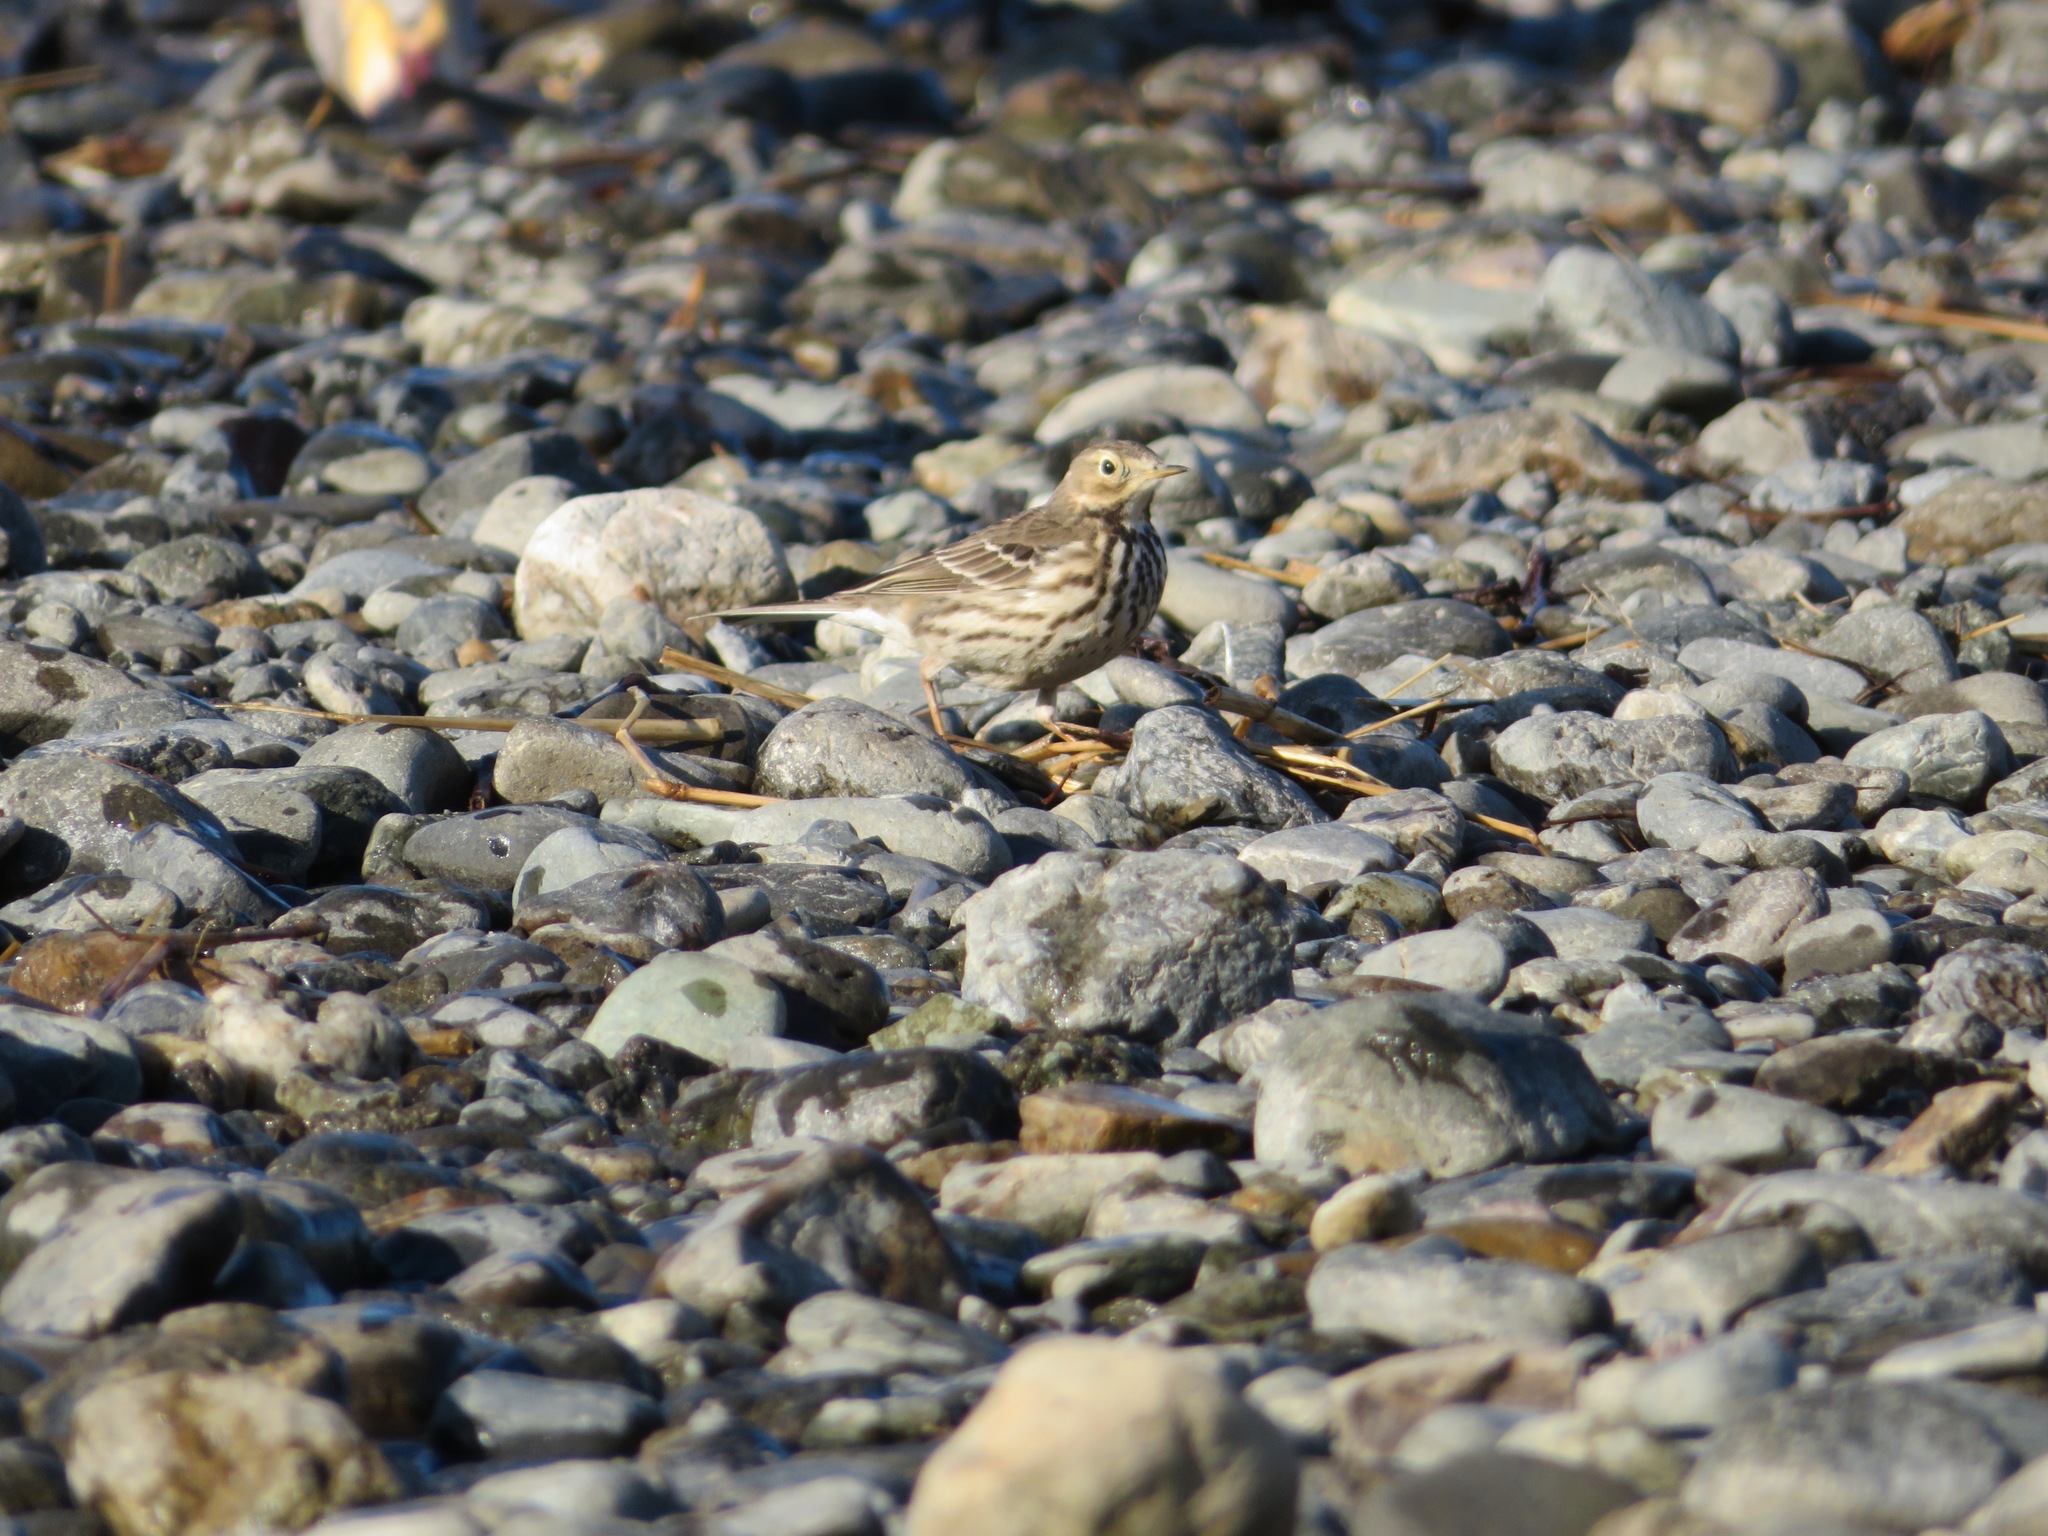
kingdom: Animalia
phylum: Chordata
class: Aves
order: Passeriformes
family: Motacillidae
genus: Anthus
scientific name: Anthus rubescens
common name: Buff-bellied pipit
